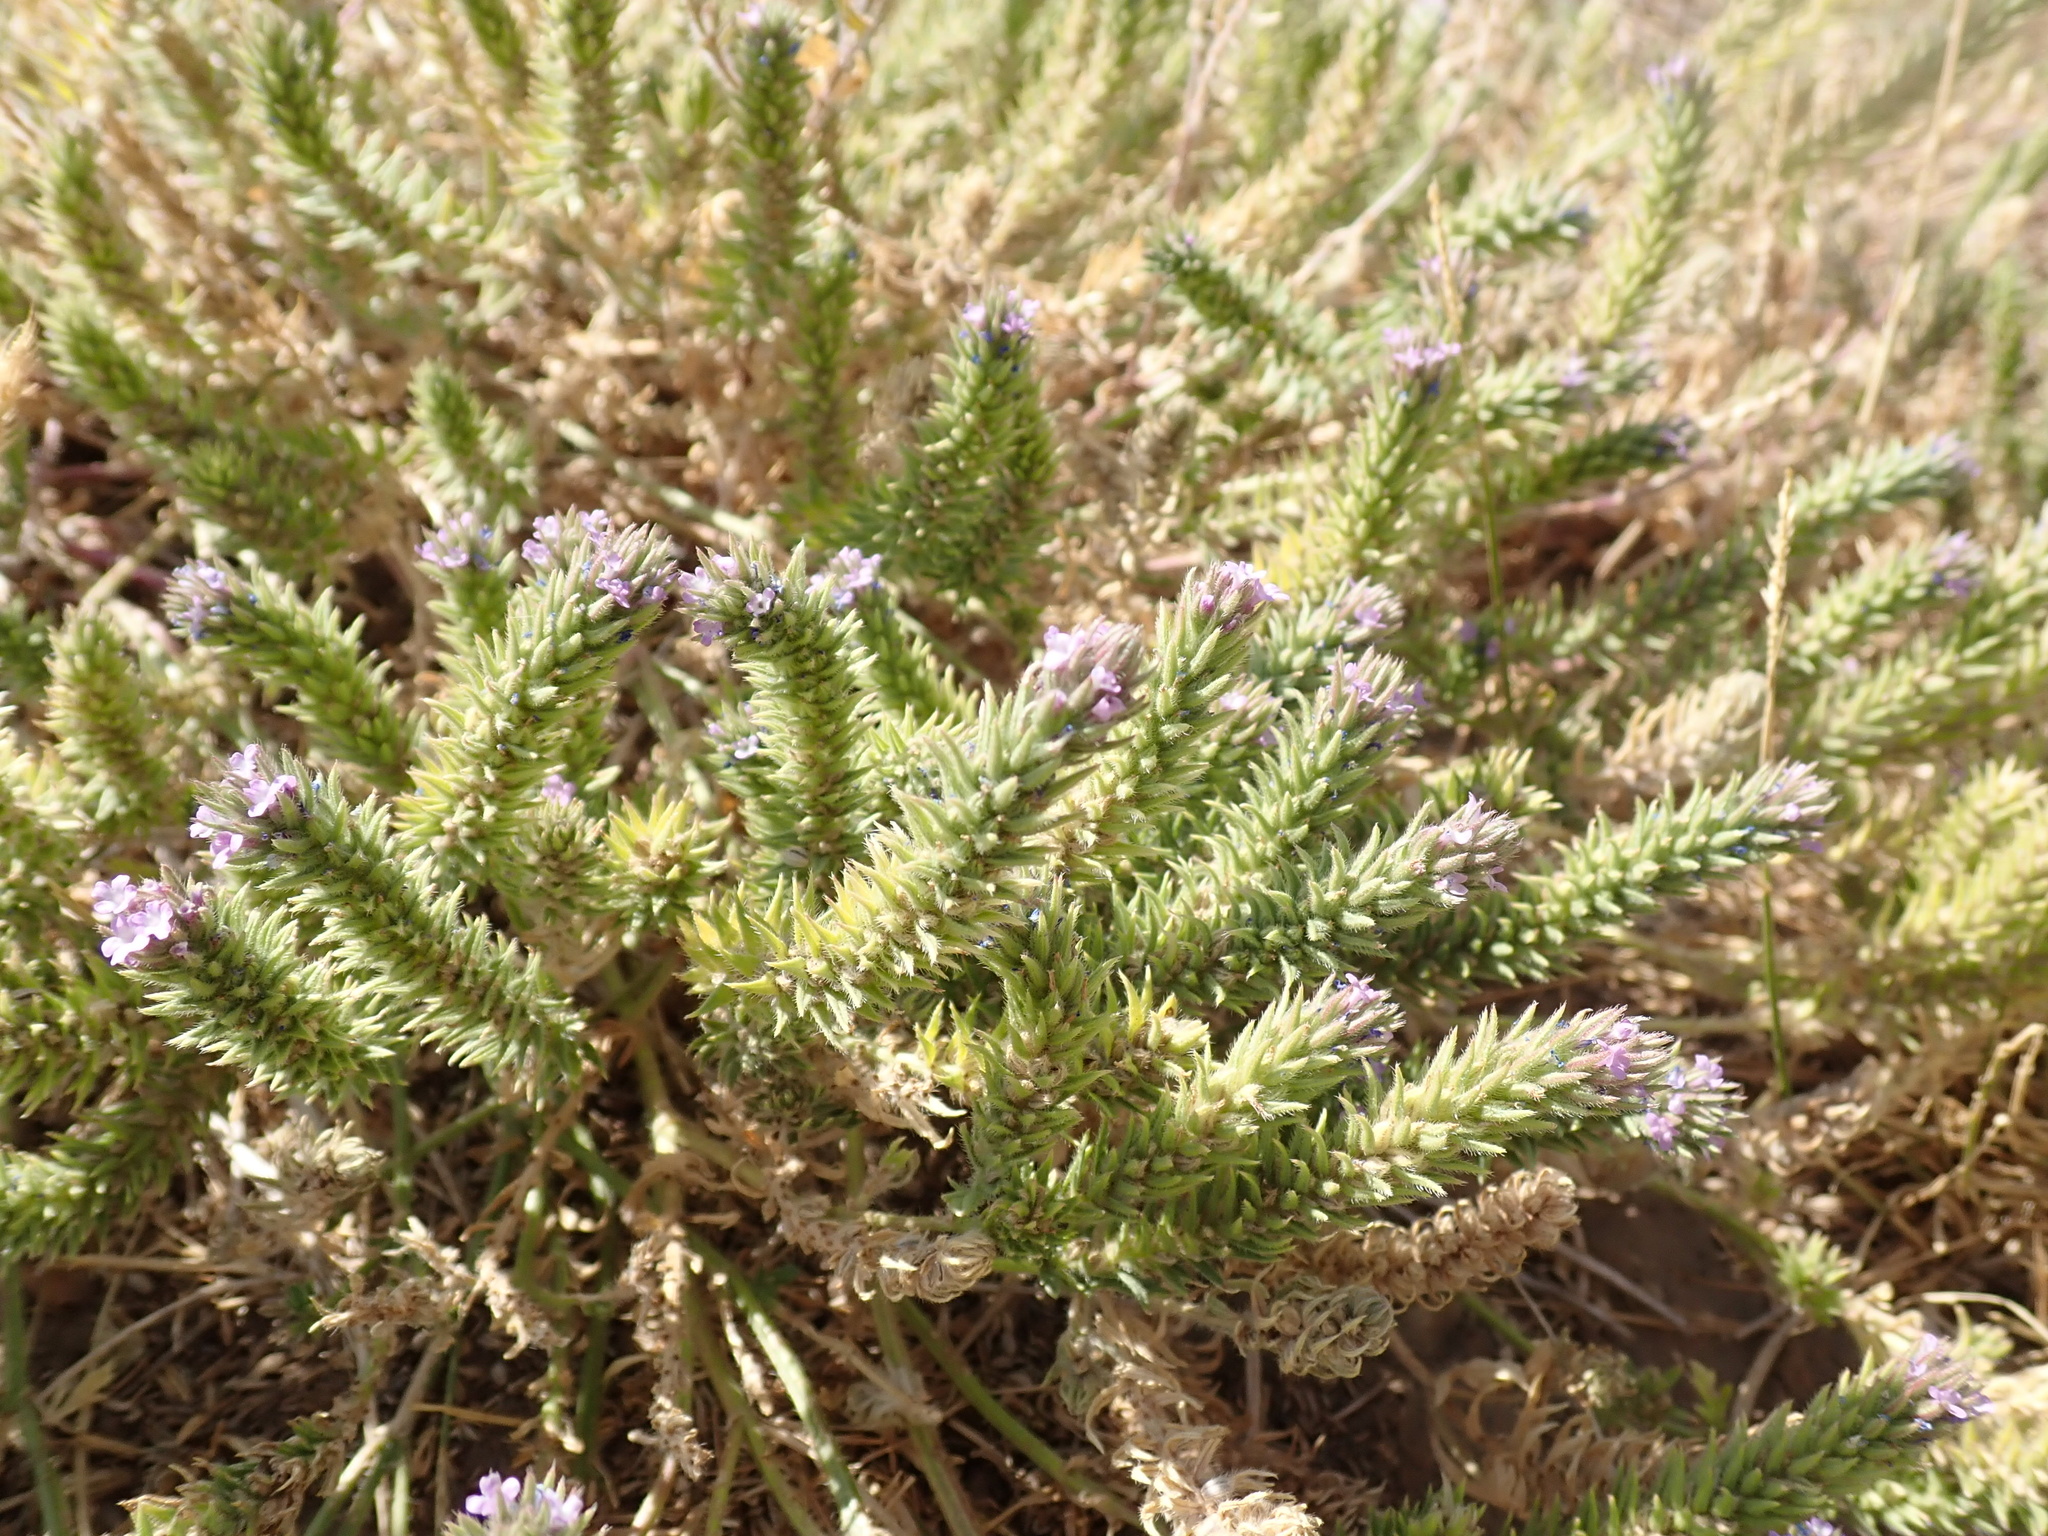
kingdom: Plantae
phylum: Tracheophyta
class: Magnoliopsida
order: Lamiales
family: Verbenaceae
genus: Verbena
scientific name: Verbena bracteata
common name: Bracted vervain
